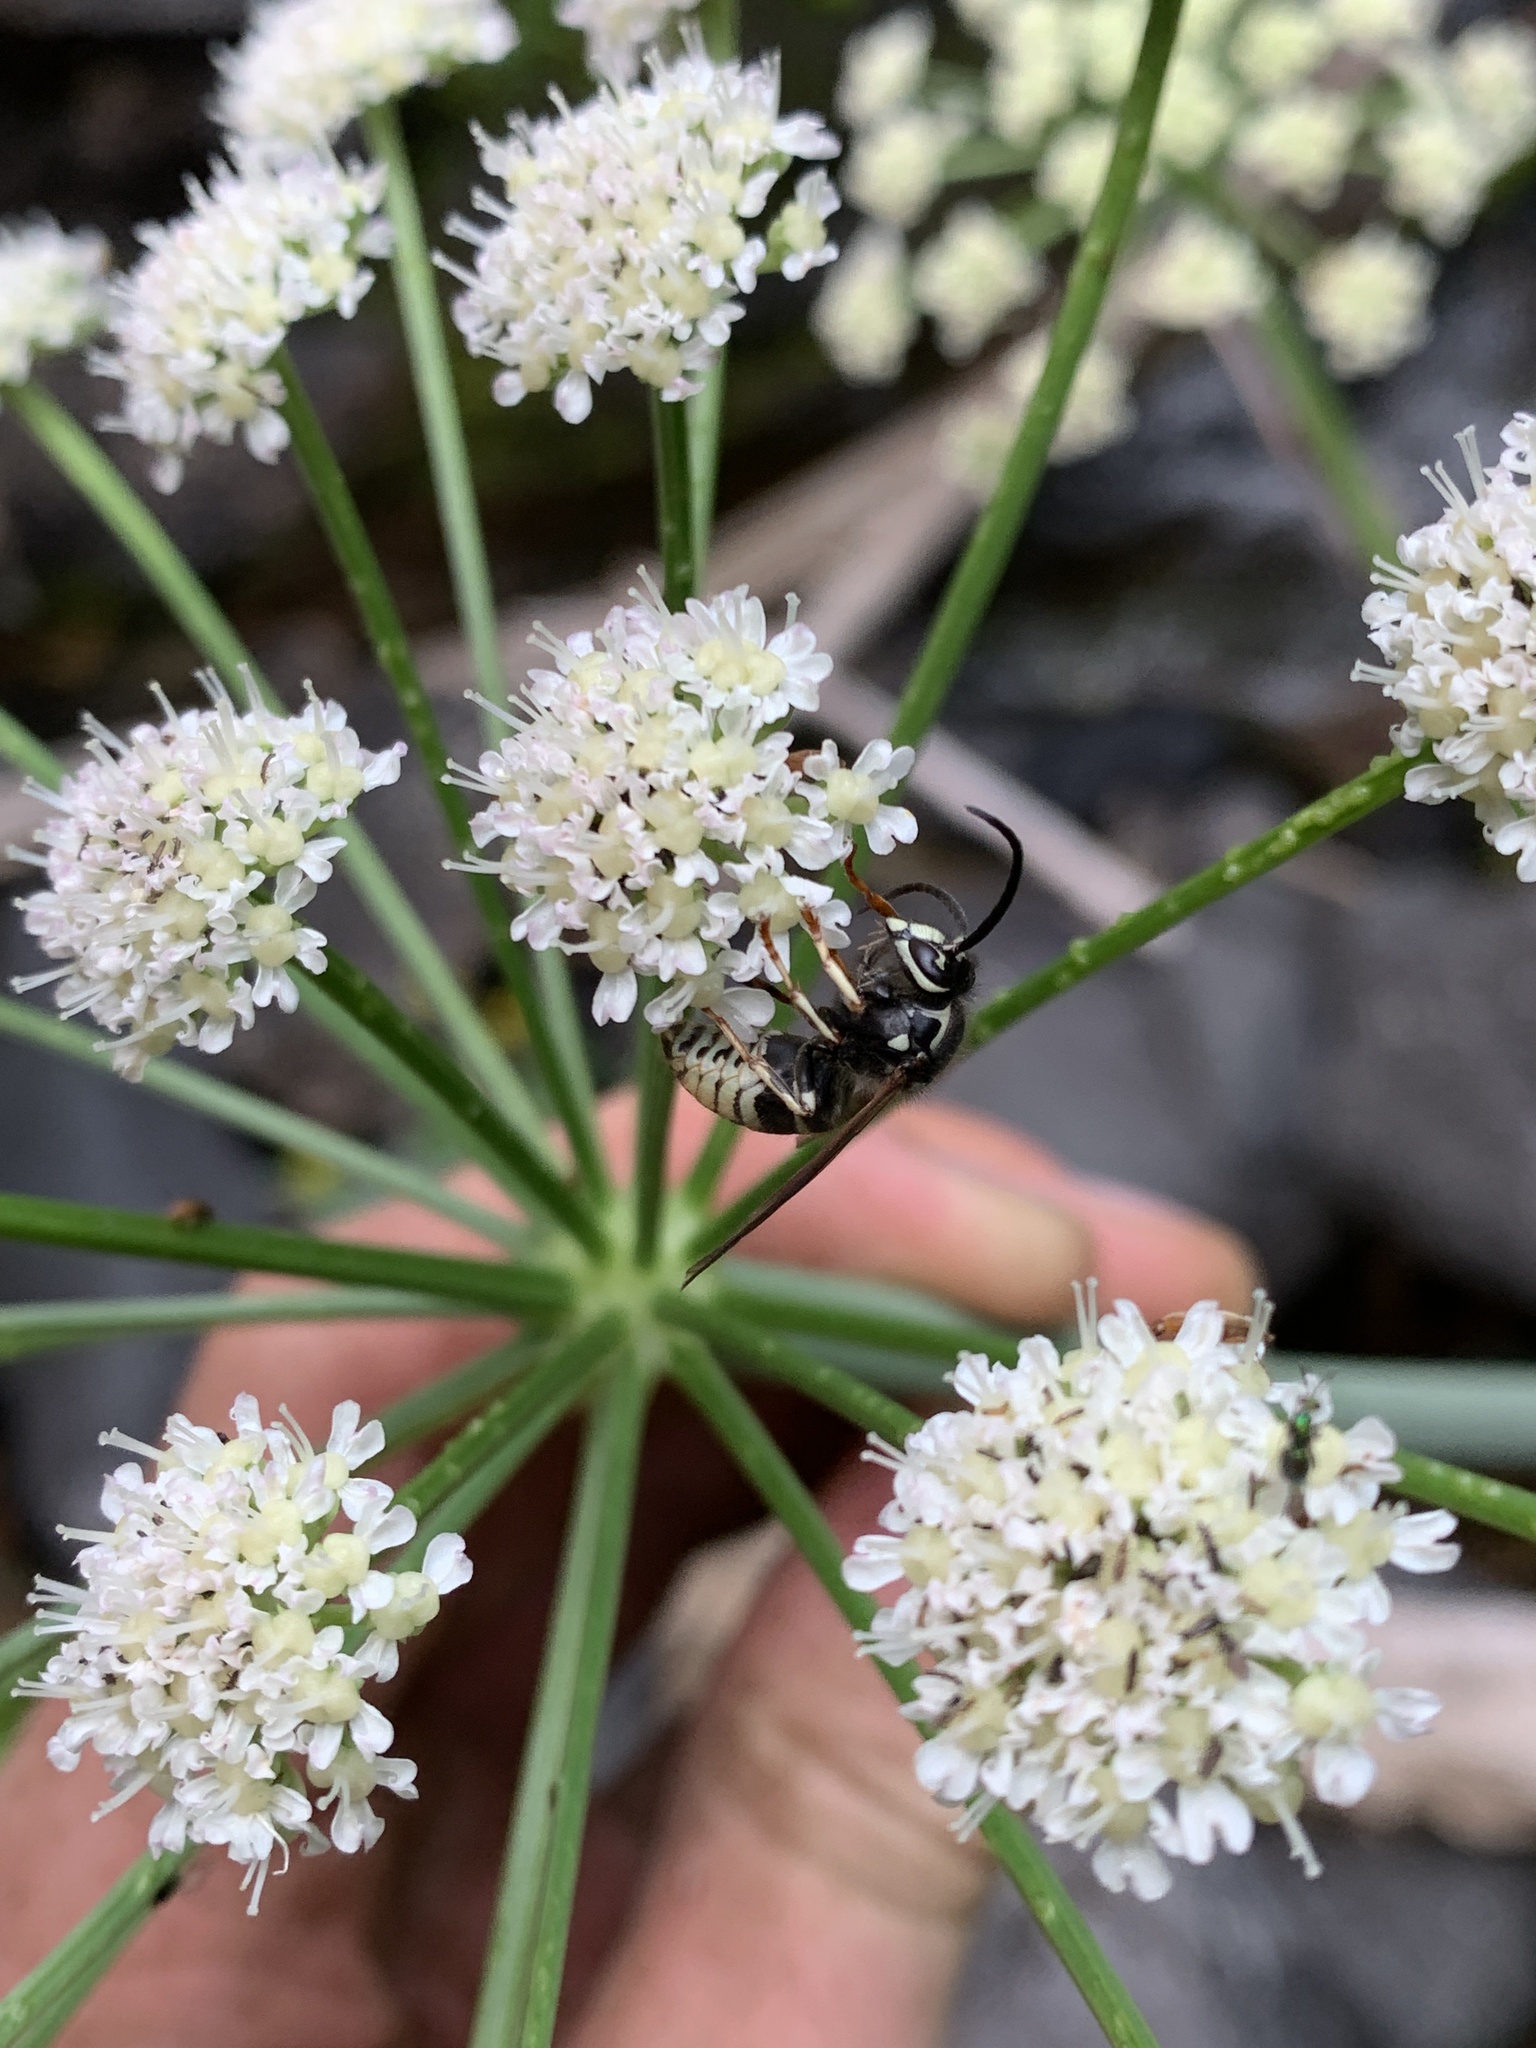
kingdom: Animalia
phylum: Arthropoda
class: Insecta
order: Hymenoptera
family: Vespidae
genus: Dolichovespula
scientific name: Dolichovespula adulterina
